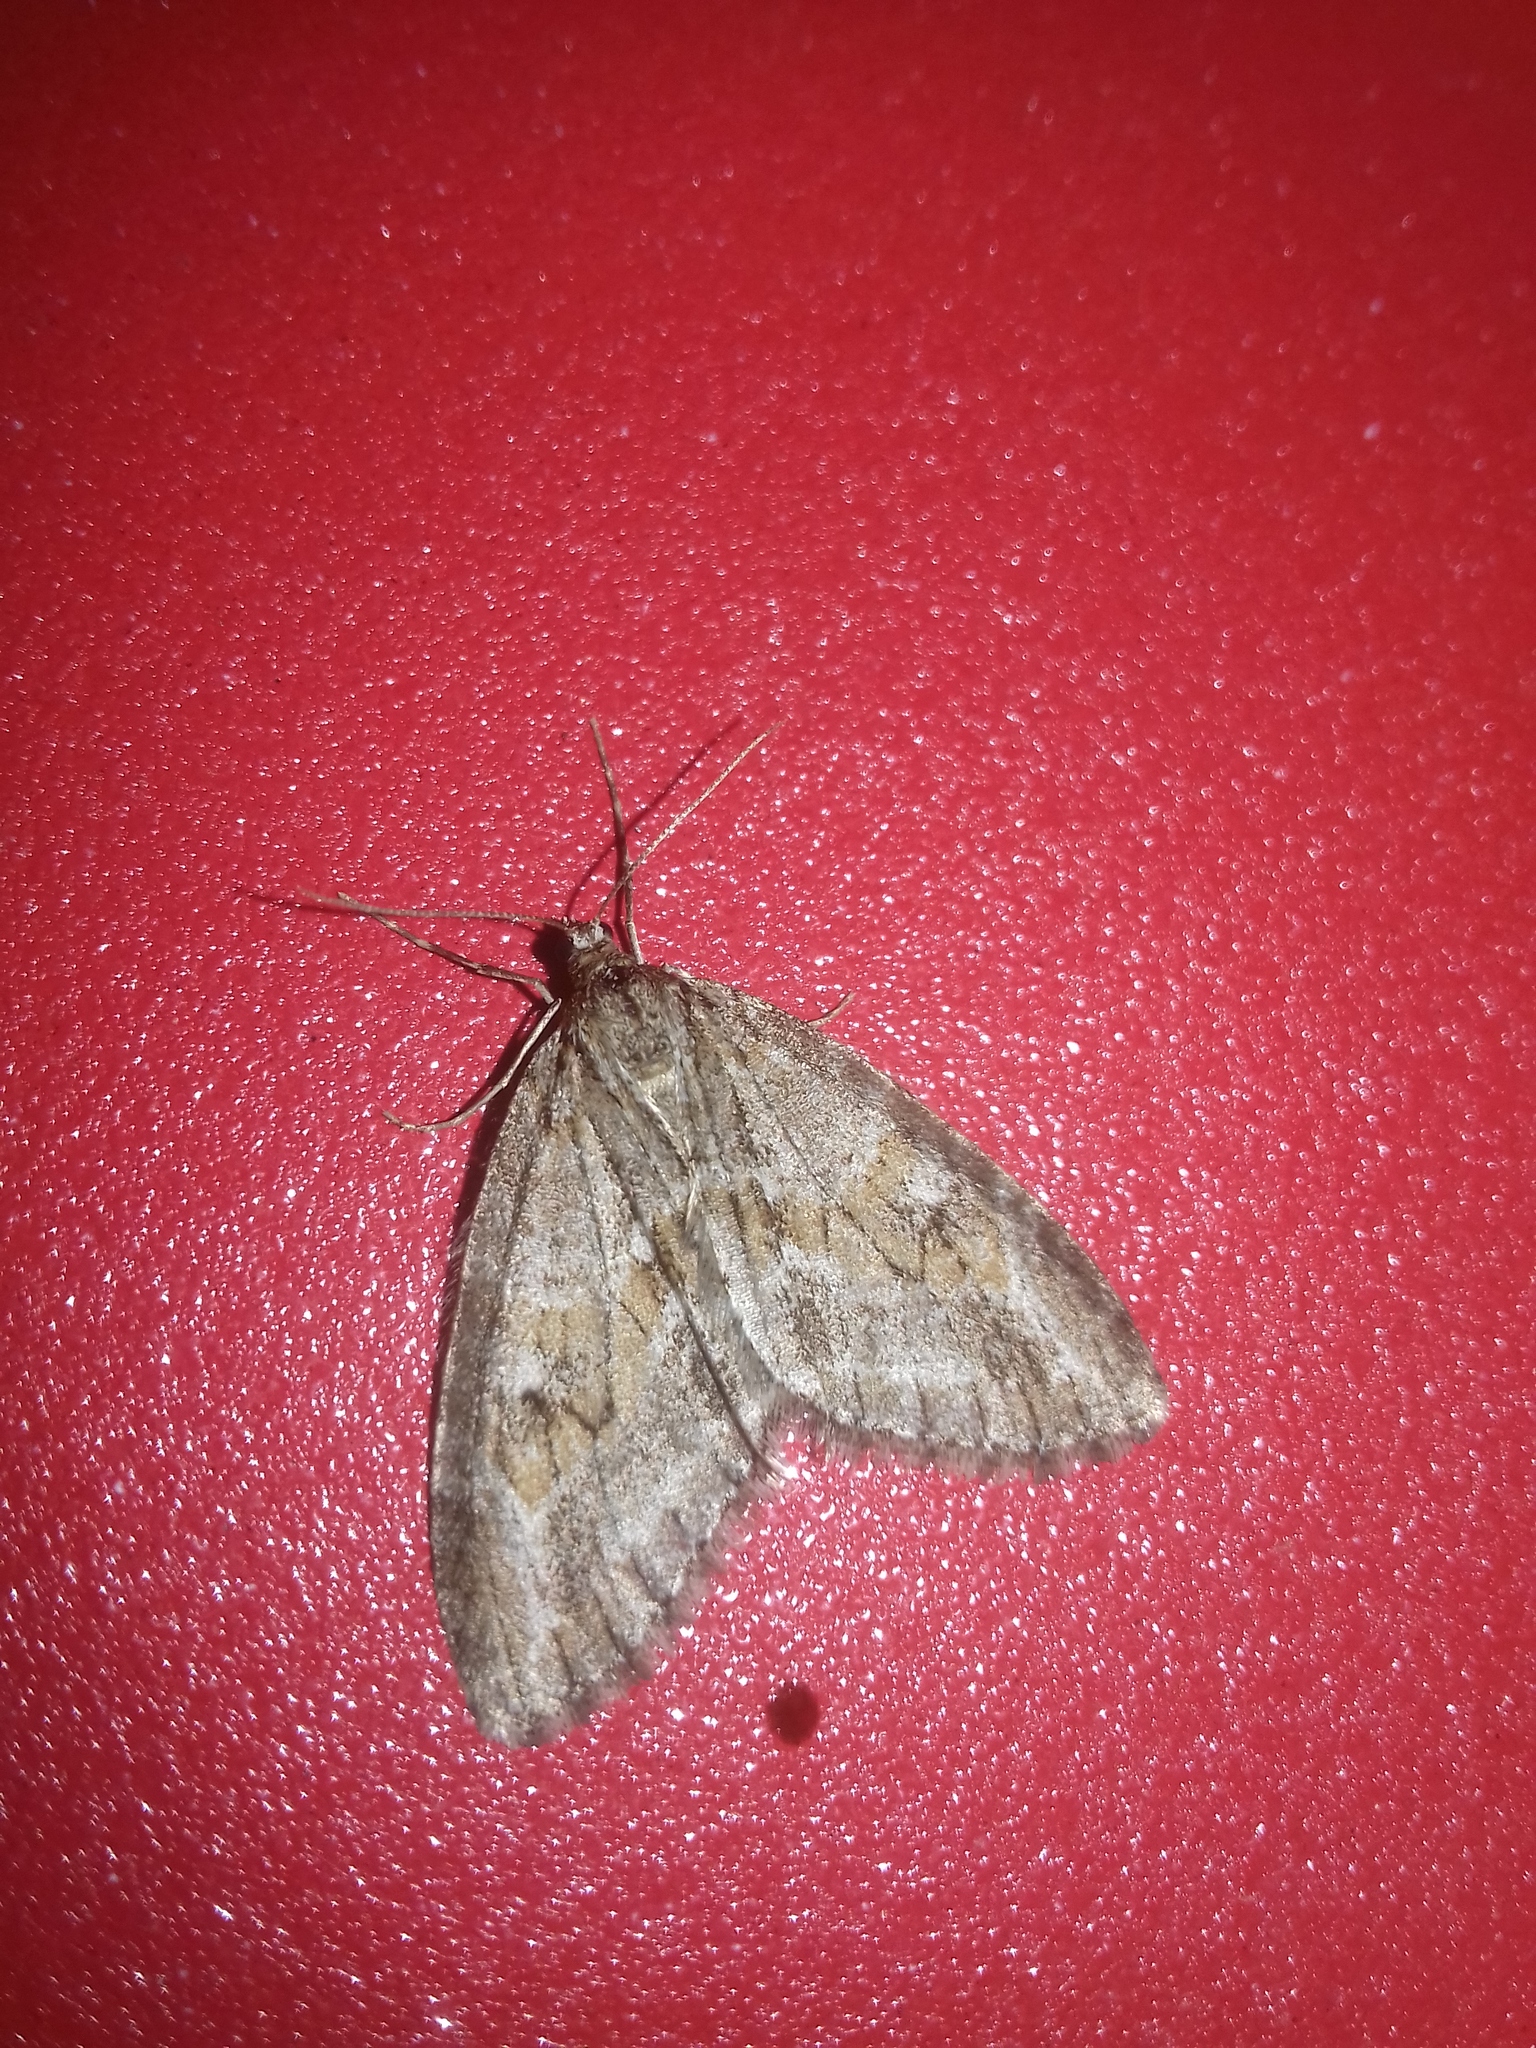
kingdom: Animalia
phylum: Arthropoda
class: Insecta
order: Lepidoptera
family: Geometridae
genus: Trichopteryx
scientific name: Trichopteryx polycommata
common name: Barred tooth-striped
